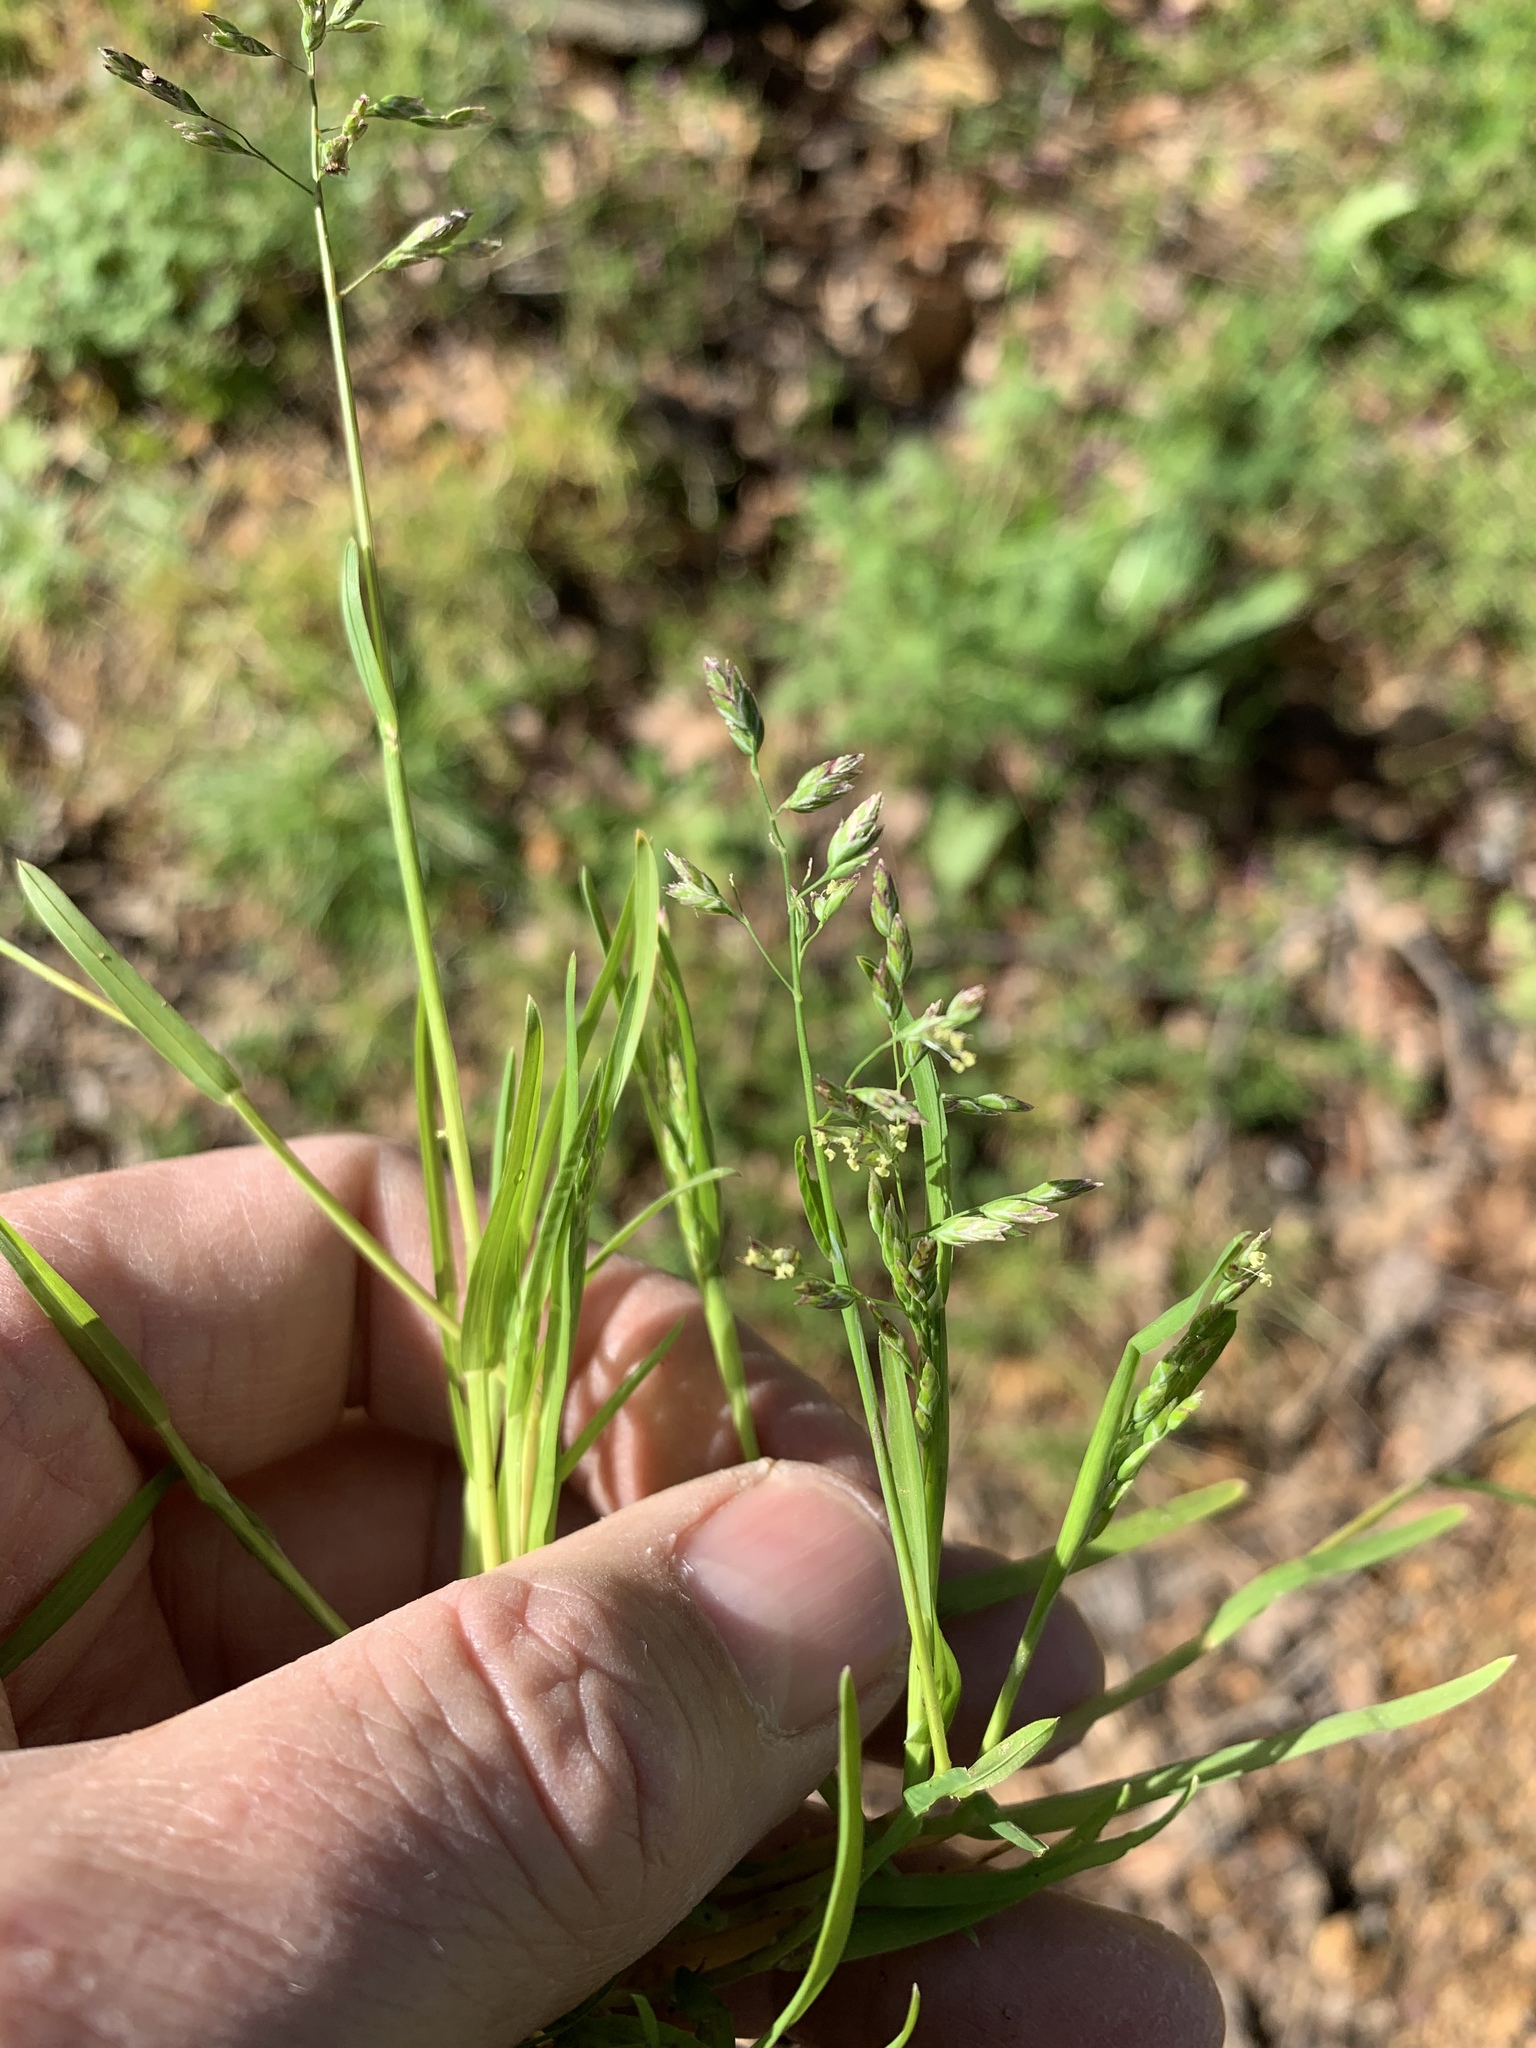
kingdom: Plantae
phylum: Tracheophyta
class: Liliopsida
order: Poales
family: Poaceae
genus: Poa
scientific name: Poa annua
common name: Annual bluegrass
